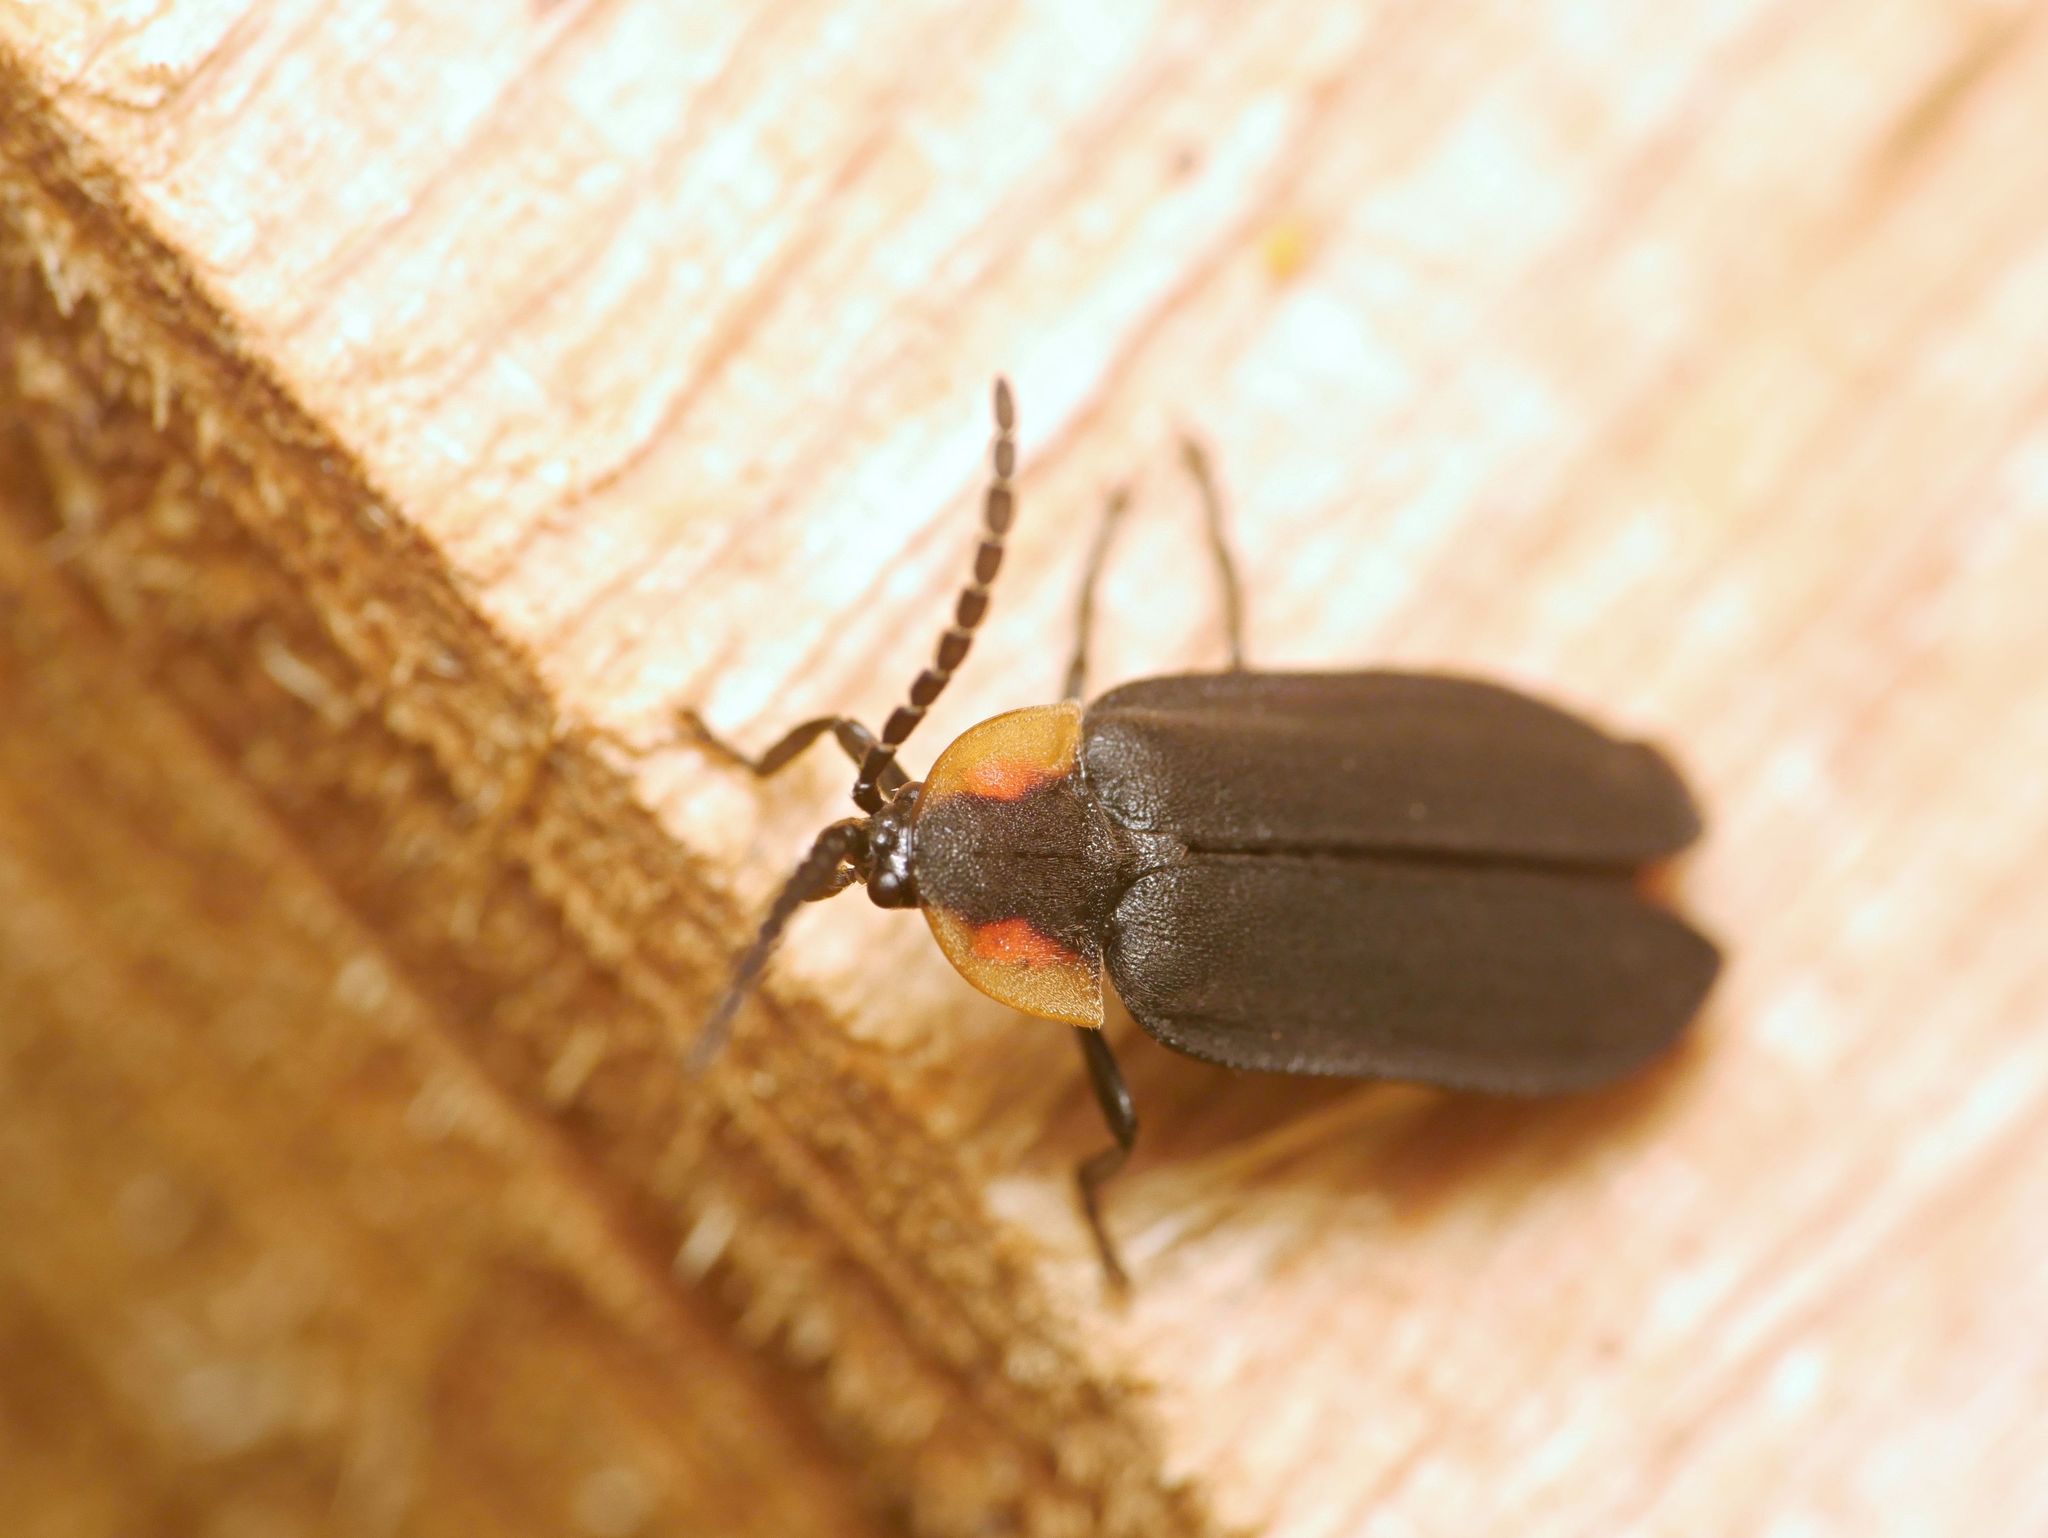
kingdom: Animalia
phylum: Arthropoda
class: Insecta
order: Coleoptera
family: Lampyridae
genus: Lucidota
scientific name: Lucidota atra
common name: Black firefly
